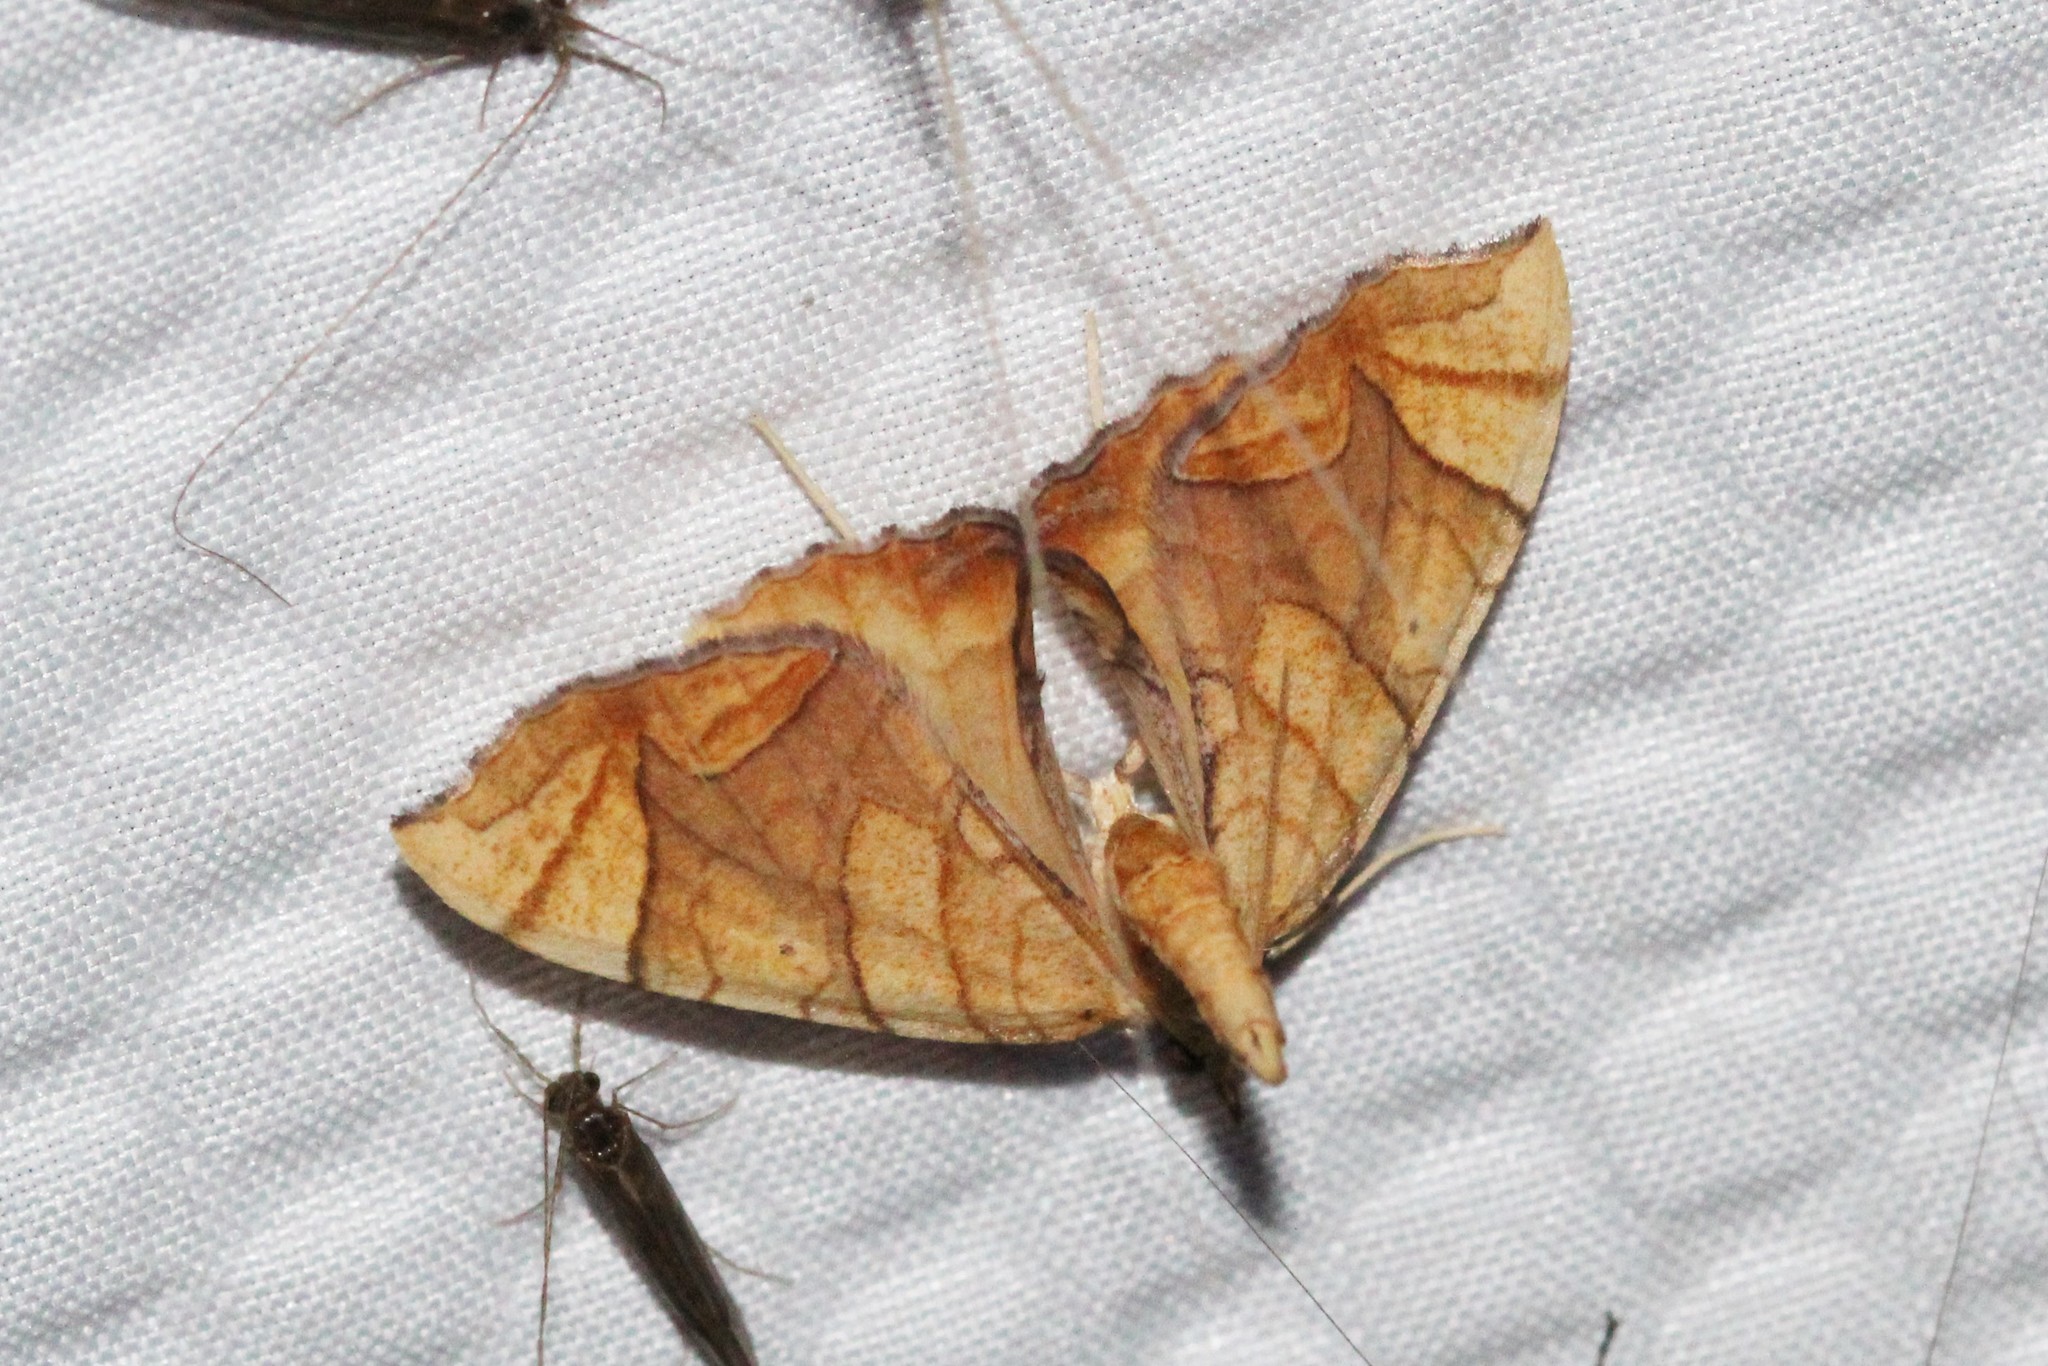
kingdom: Animalia
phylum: Arthropoda
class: Insecta
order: Lepidoptera
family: Geometridae
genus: Eulithis
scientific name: Eulithis
